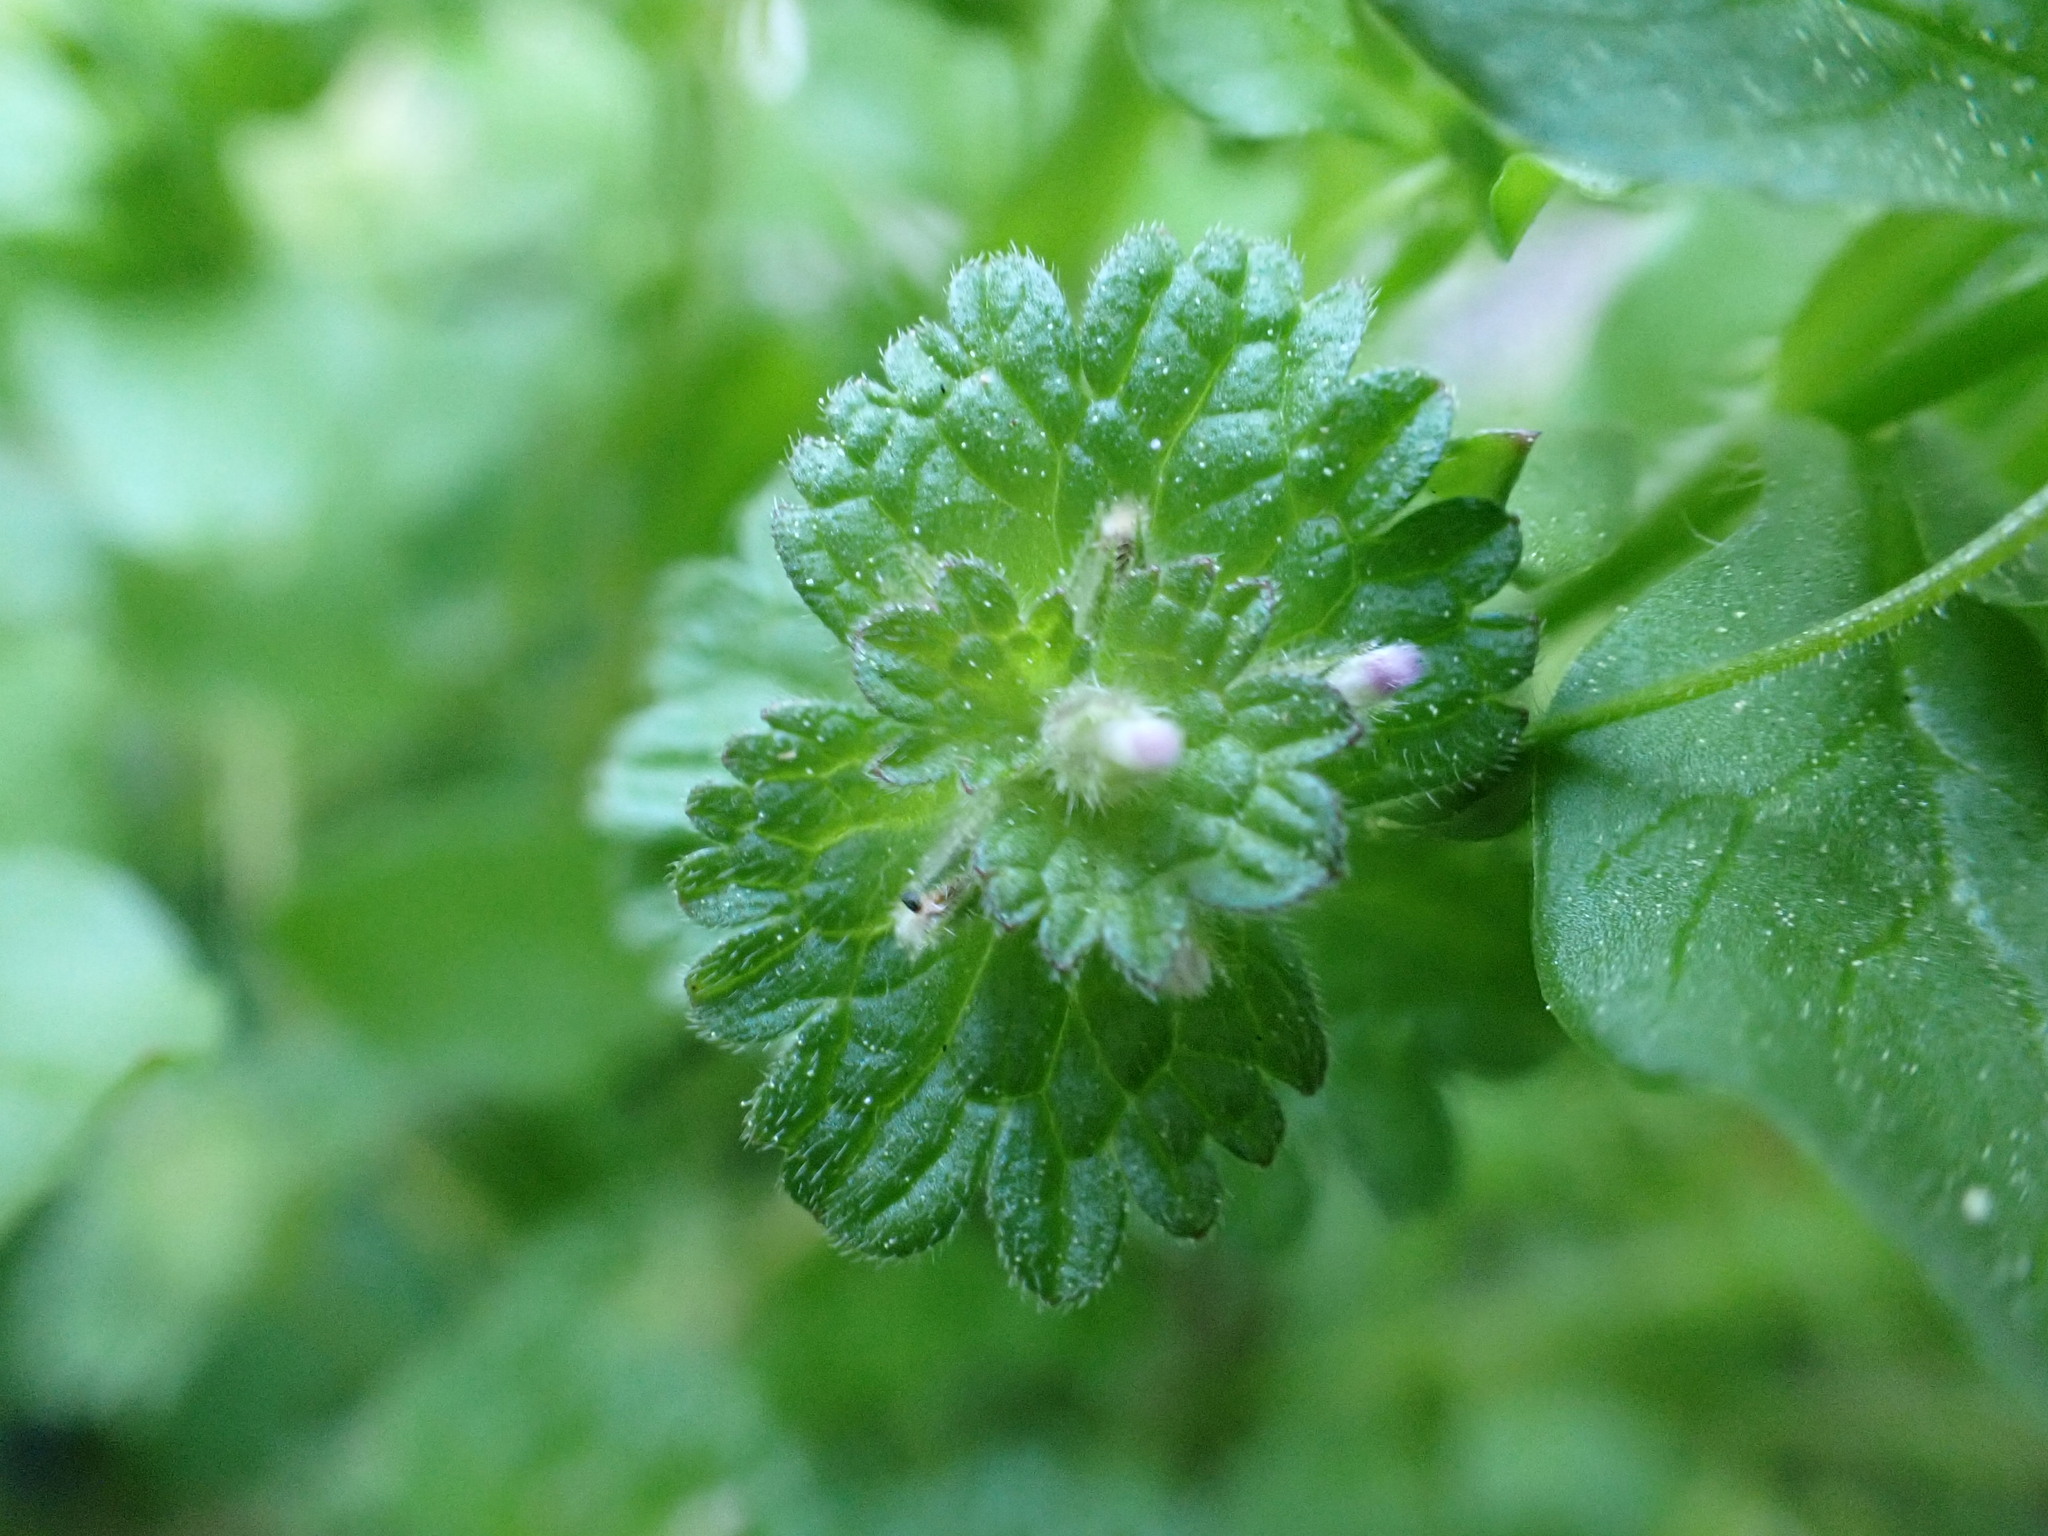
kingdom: Plantae
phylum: Tracheophyta
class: Magnoliopsida
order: Lamiales
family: Lamiaceae
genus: Lamium
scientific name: Lamium amplexicaule
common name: Henbit dead-nettle
